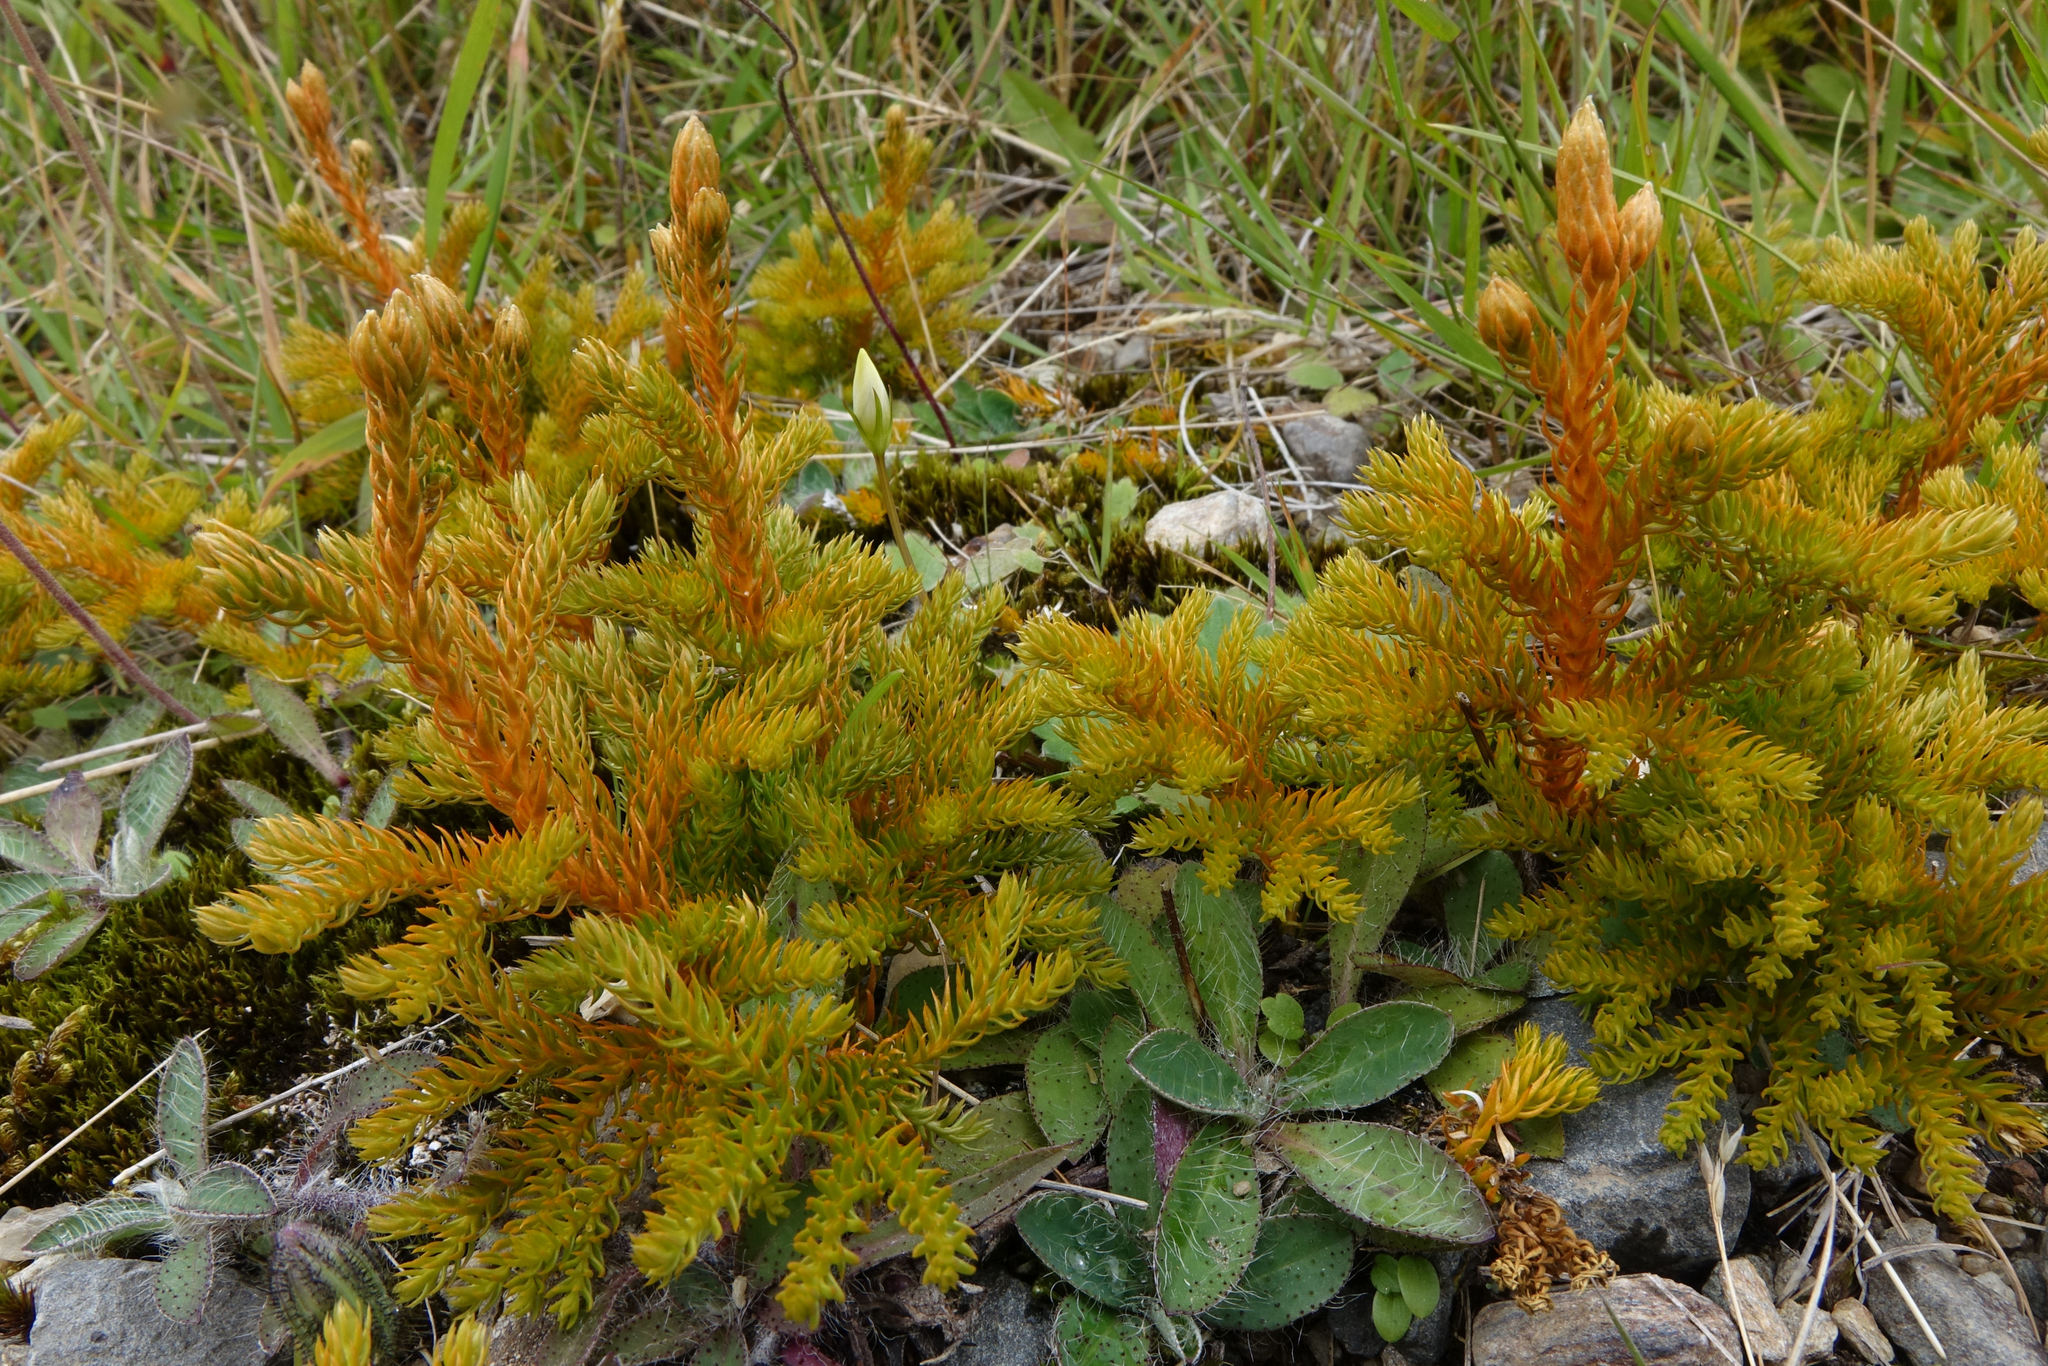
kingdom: Plantae
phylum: Tracheophyta
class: Lycopodiopsida
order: Lycopodiales
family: Lycopodiaceae
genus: Austrolycopodium
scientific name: Austrolycopodium fastigiatum
